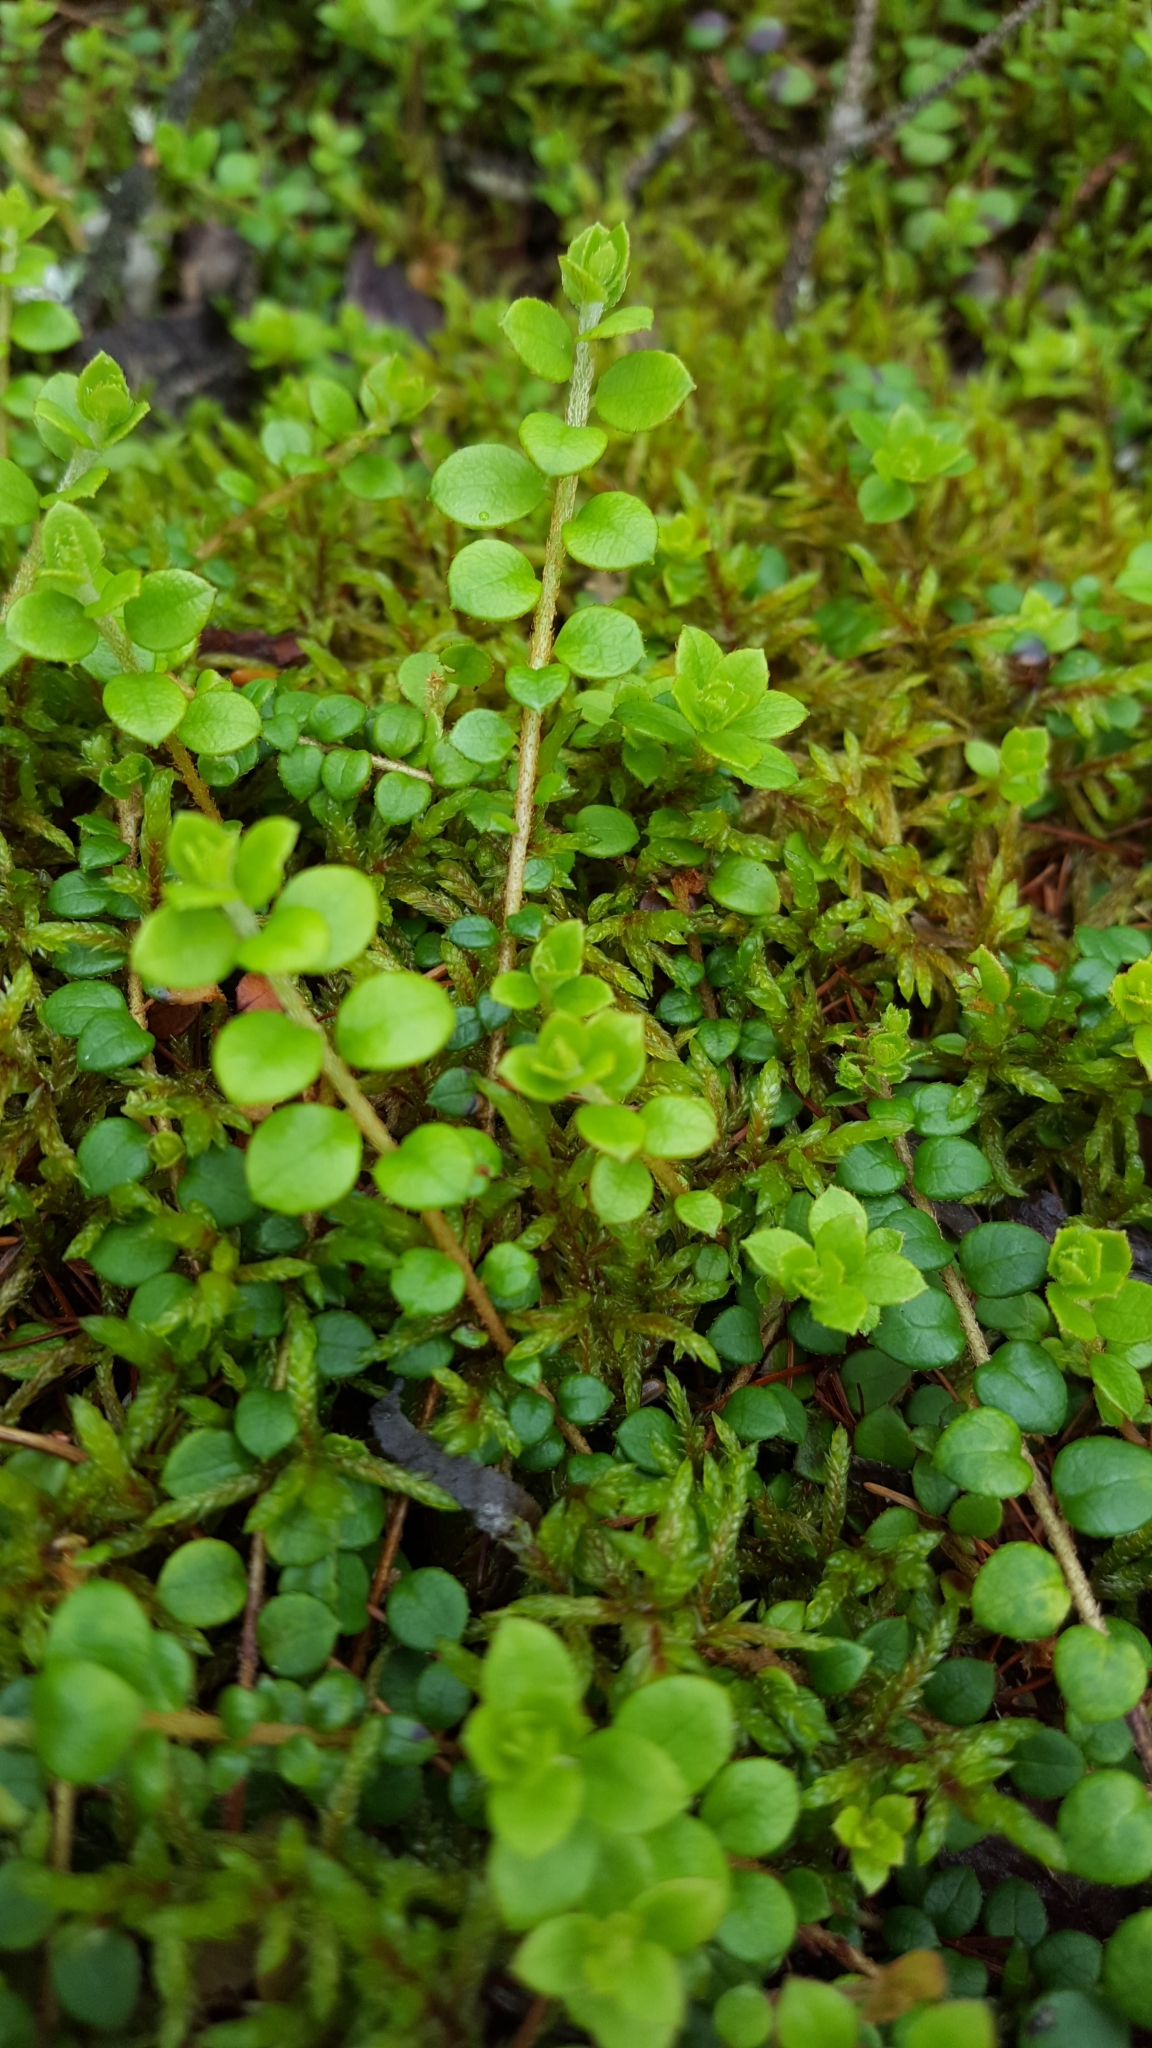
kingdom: Plantae
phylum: Tracheophyta
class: Magnoliopsida
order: Dipsacales
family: Caprifoliaceae
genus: Symphoricarpos
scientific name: Symphoricarpos albus
